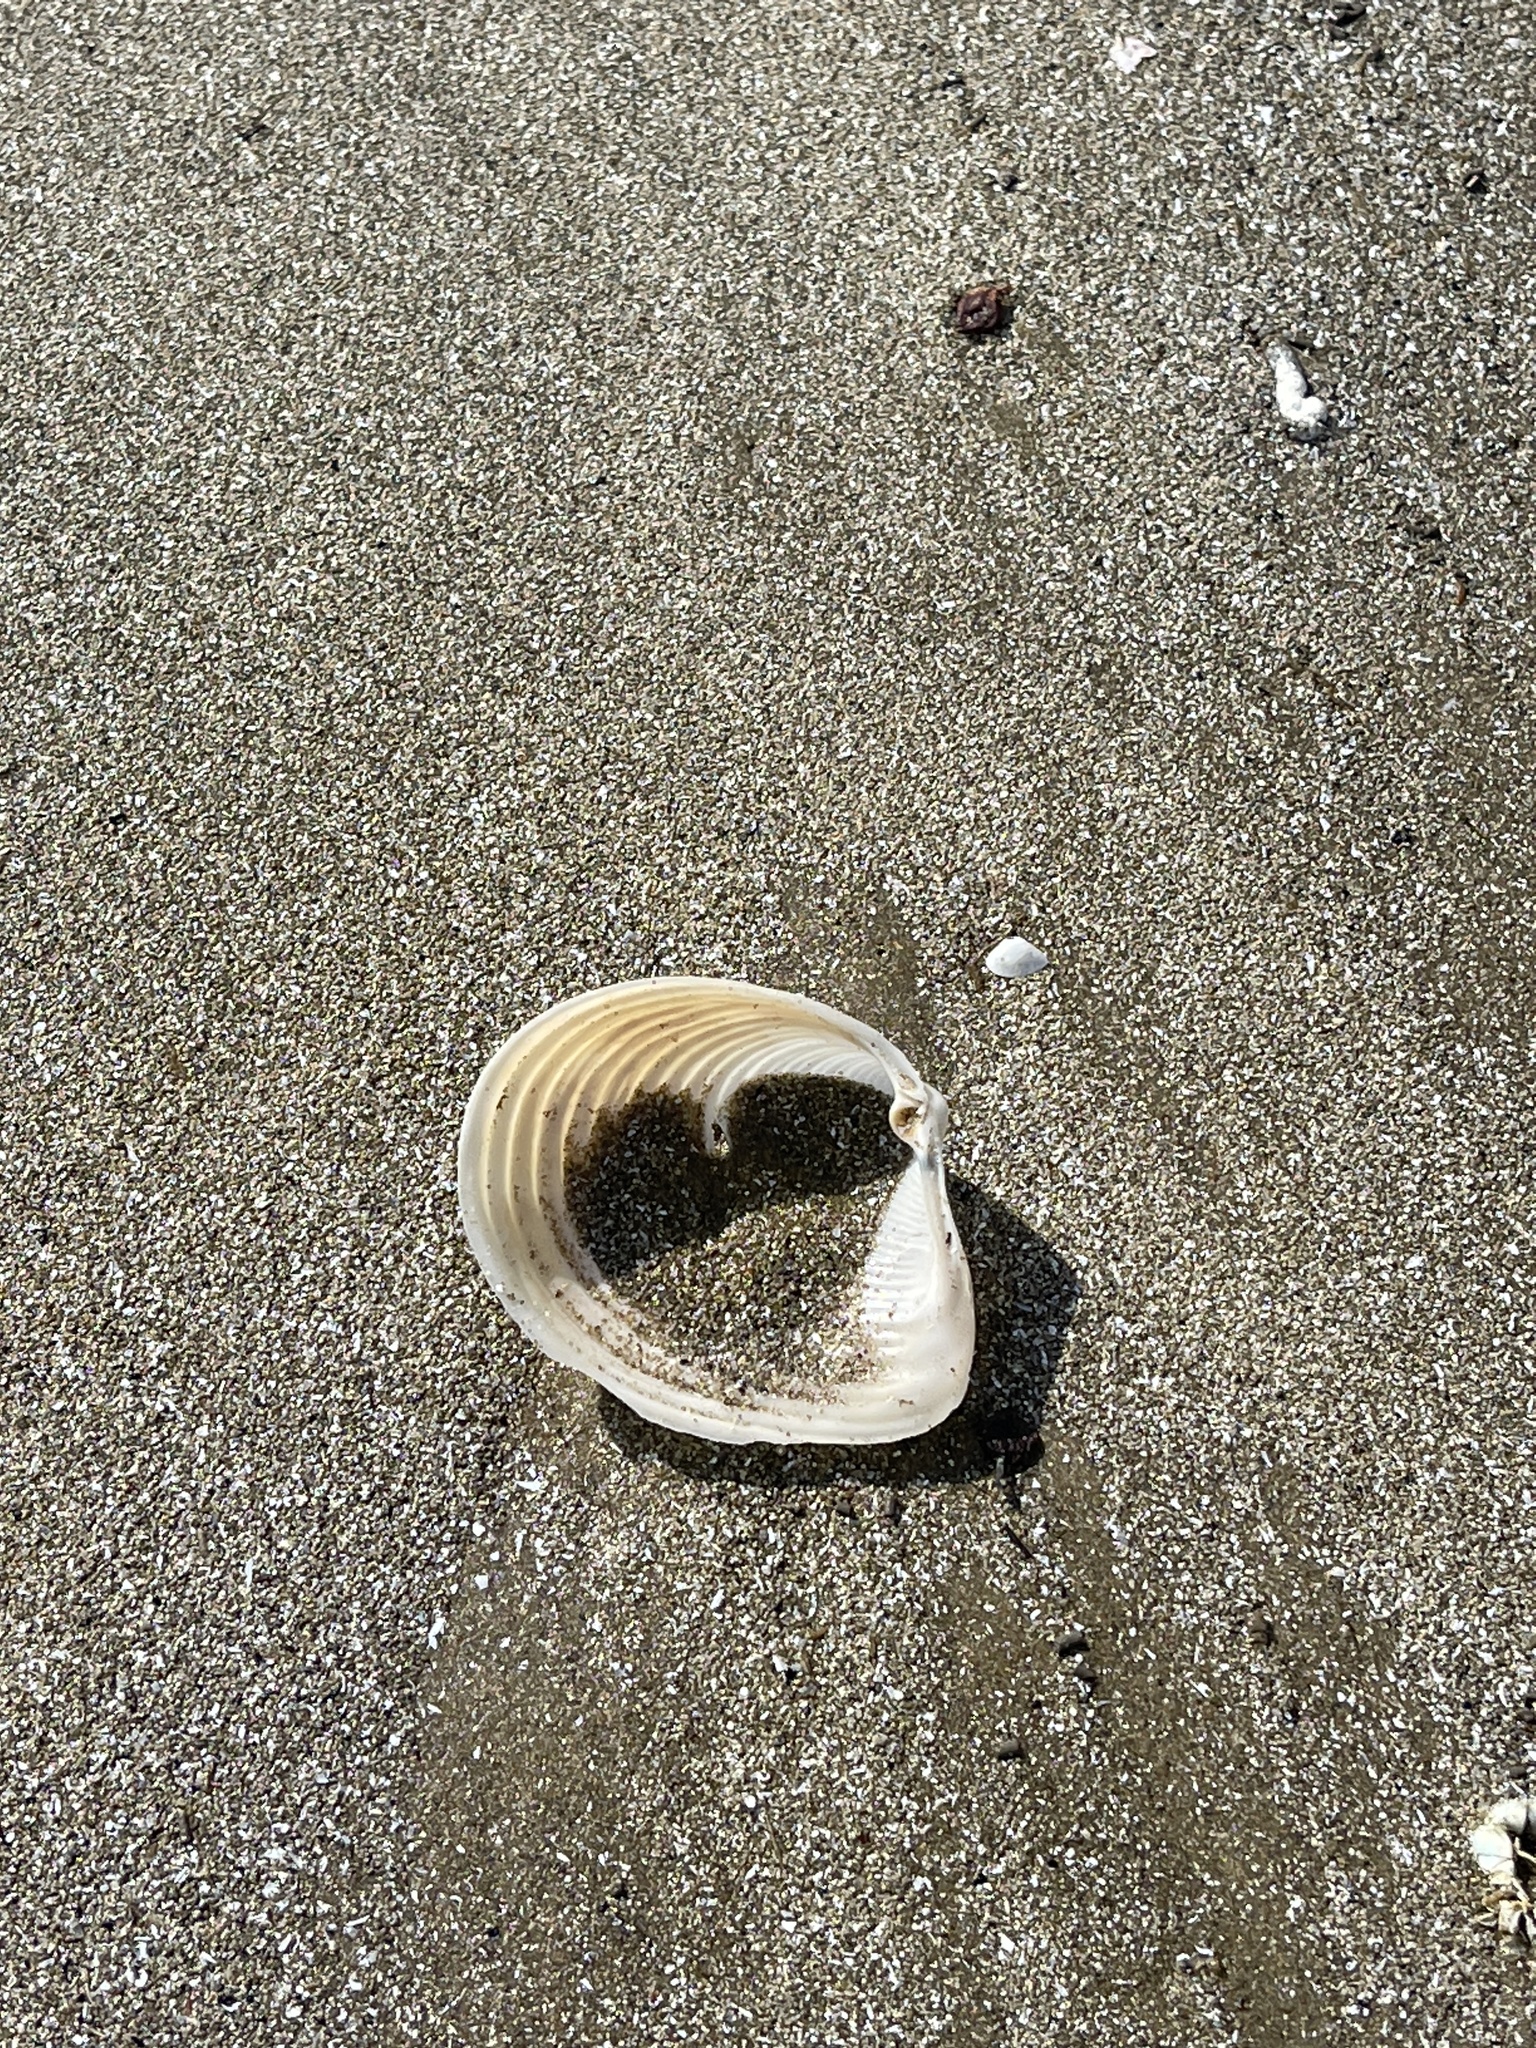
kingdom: Animalia
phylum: Mollusca
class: Bivalvia
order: Venerida
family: Anatinellidae
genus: Raeta
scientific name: Raeta plicatella
